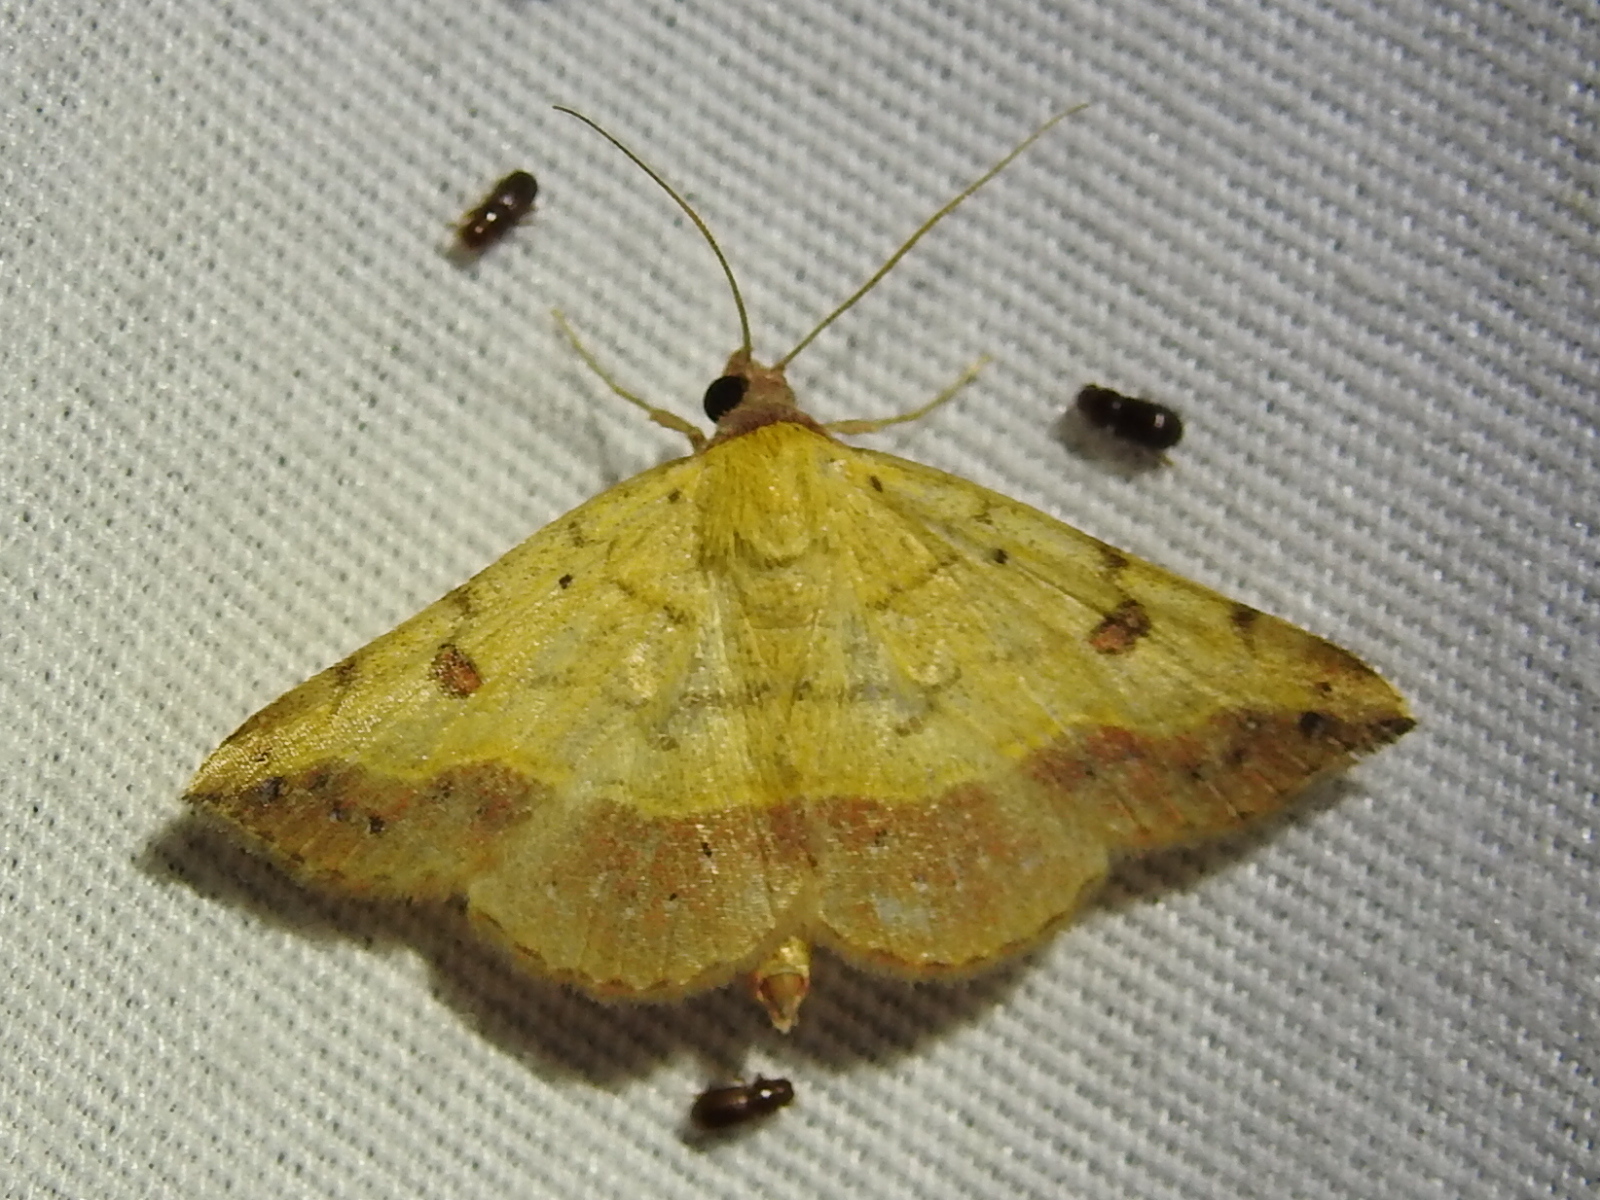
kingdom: Animalia
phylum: Arthropoda
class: Insecta
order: Lepidoptera
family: Erebidae
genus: Hemeroplanis
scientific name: Hemeroplanis scopulepes
